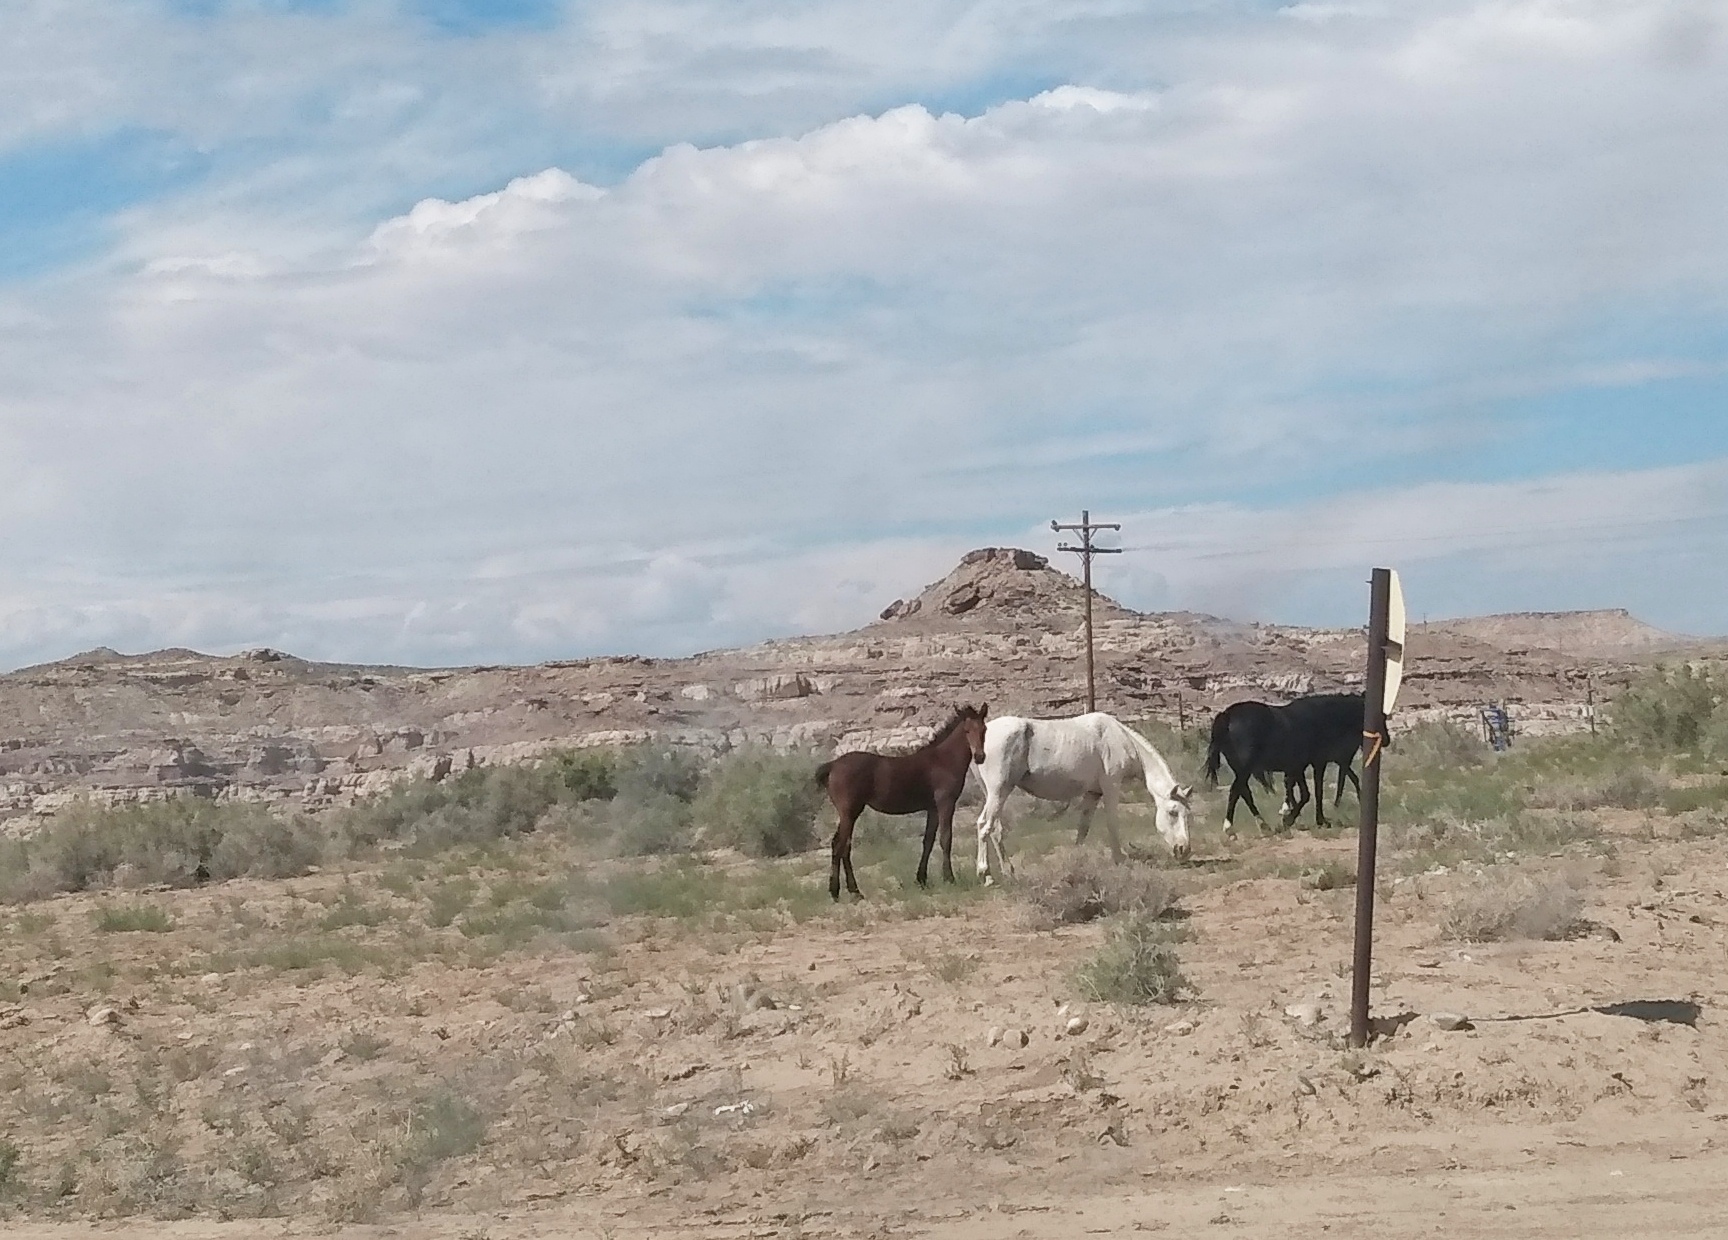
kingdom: Animalia
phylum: Chordata
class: Mammalia
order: Perissodactyla
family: Equidae
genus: Equus
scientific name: Equus caballus
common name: Horse
